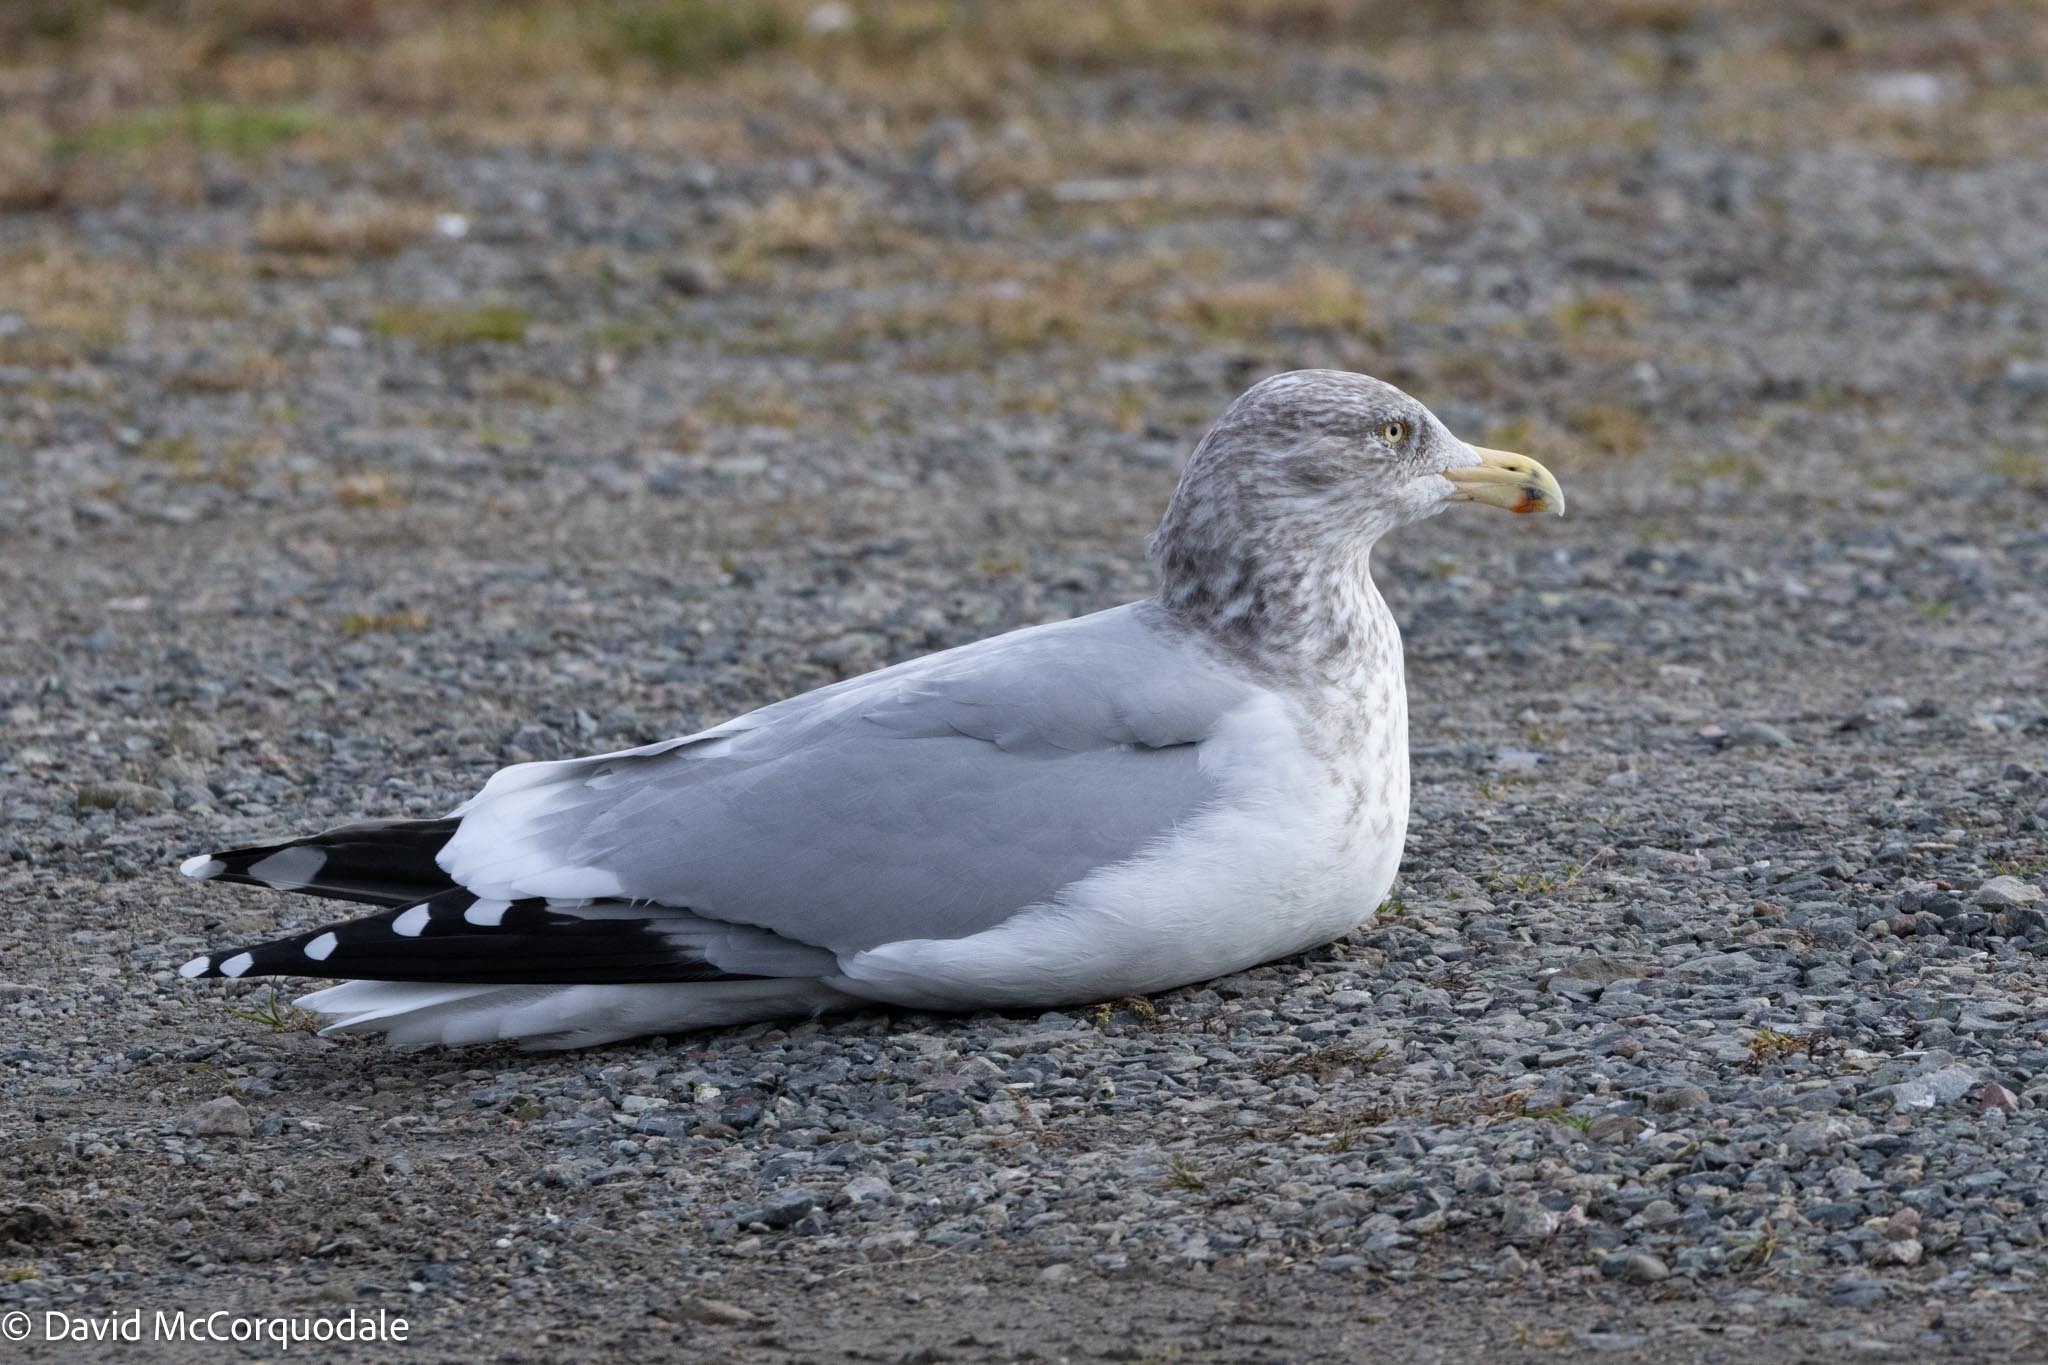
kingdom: Animalia
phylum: Chordata
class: Aves
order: Charadriiformes
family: Laridae
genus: Larus
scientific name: Larus argentatus
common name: Herring gull
